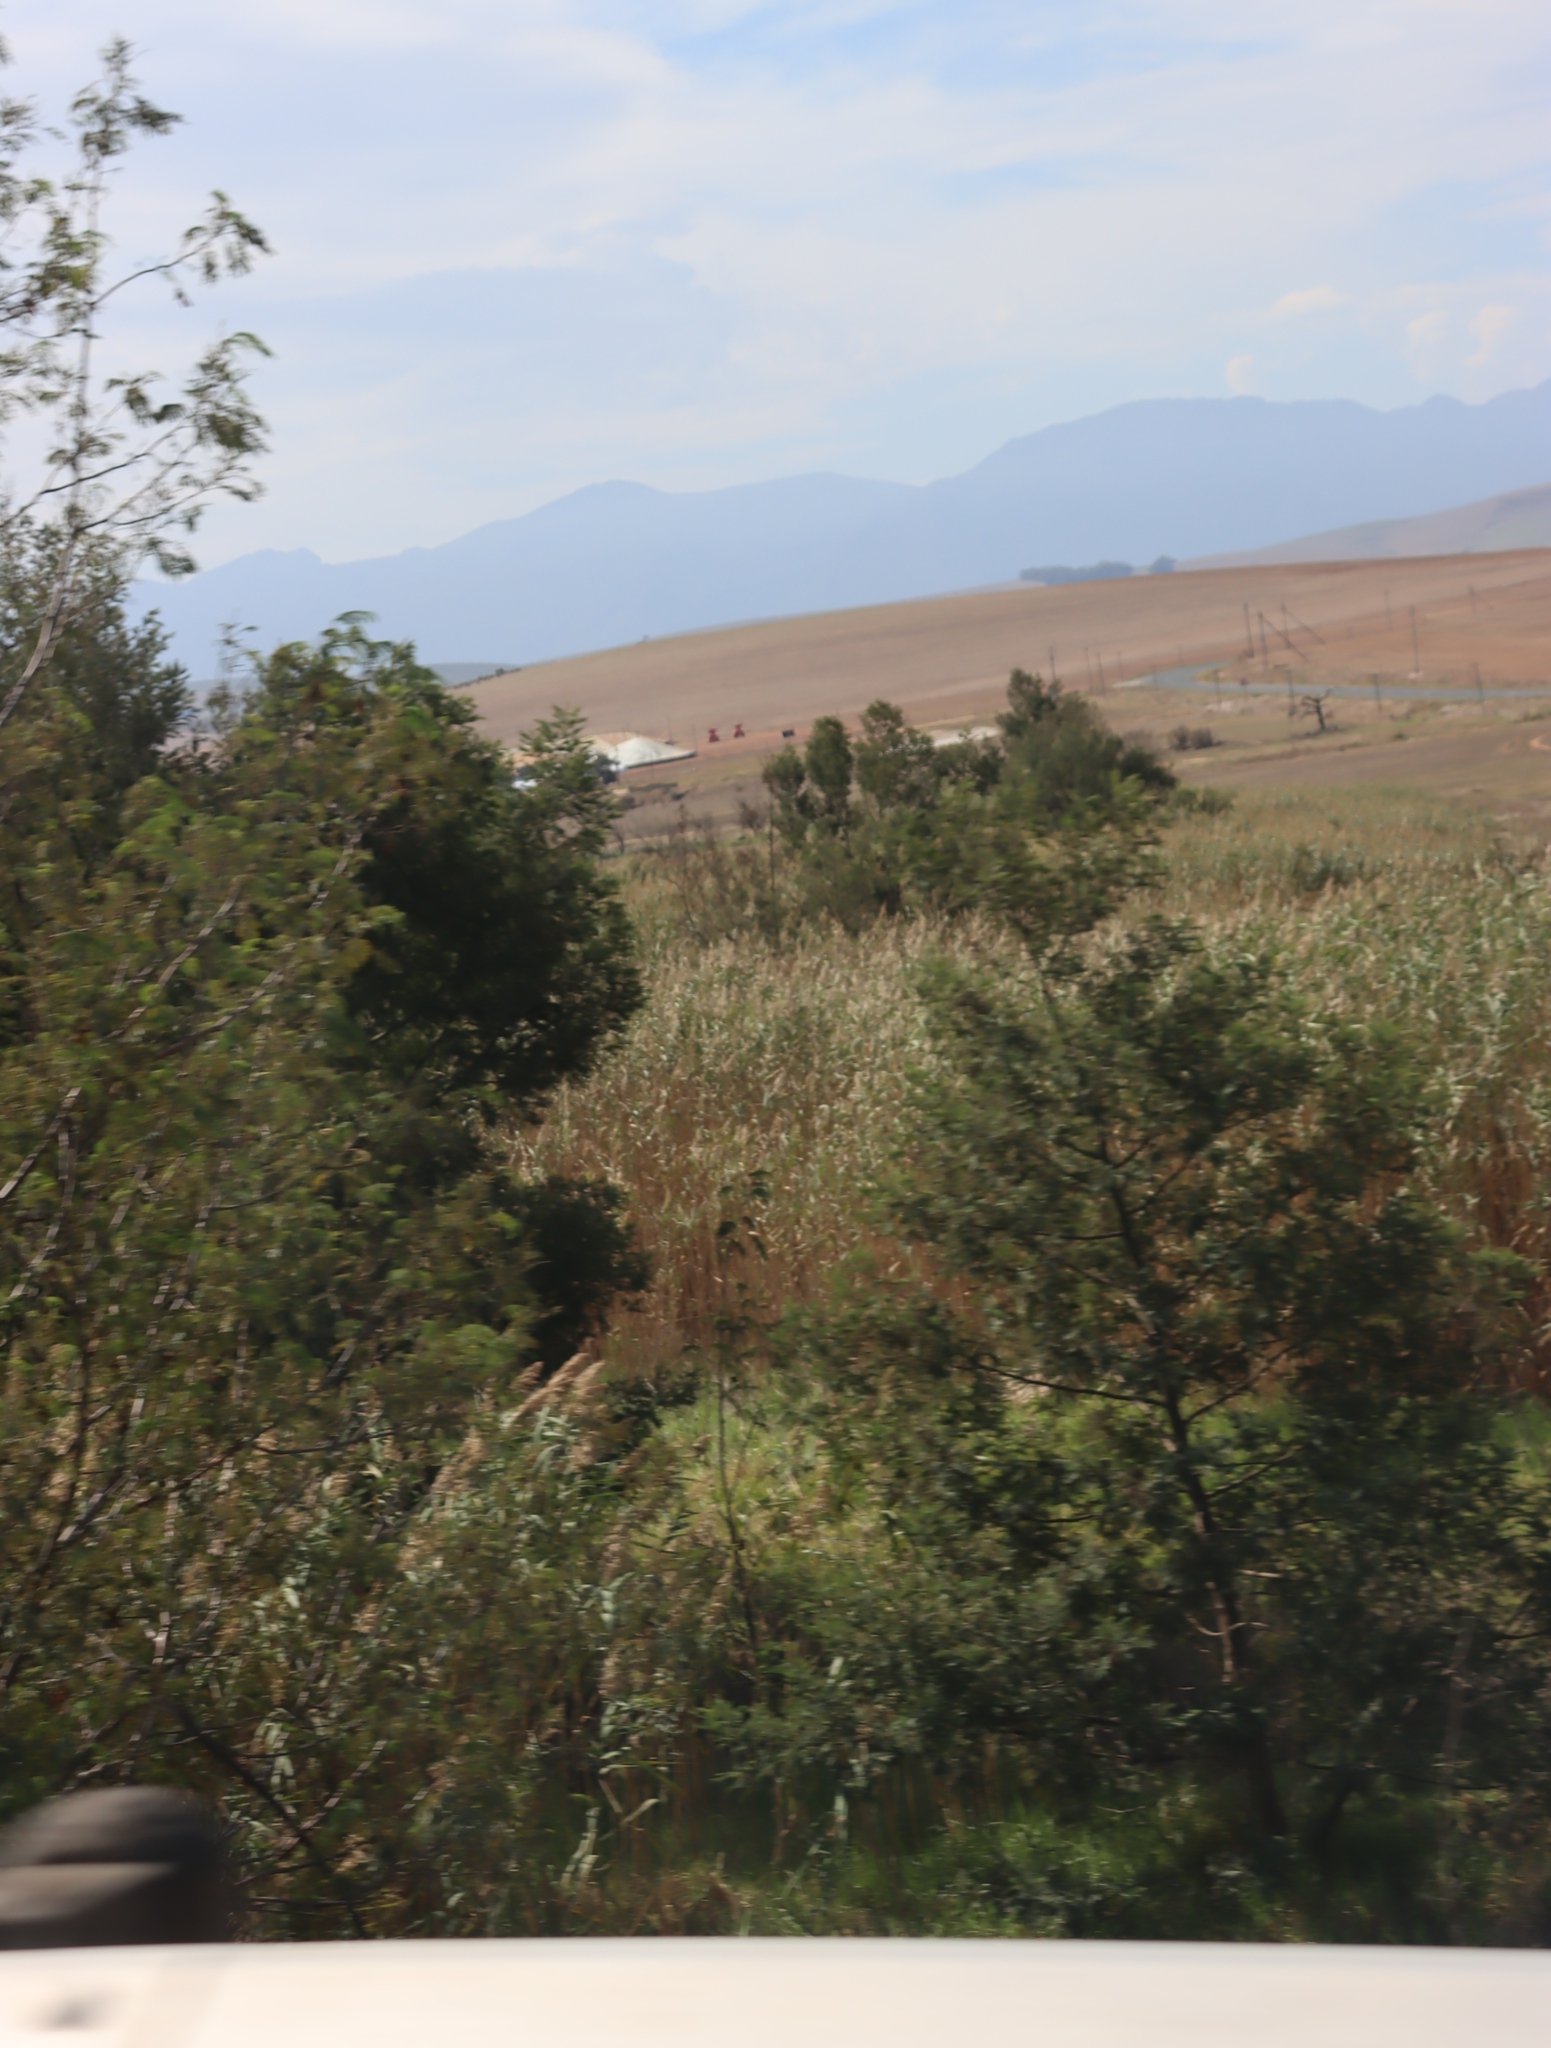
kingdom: Plantae
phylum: Tracheophyta
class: Magnoliopsida
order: Fabales
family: Fabaceae
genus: Acacia
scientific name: Acacia mearnsii
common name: Black wattle
